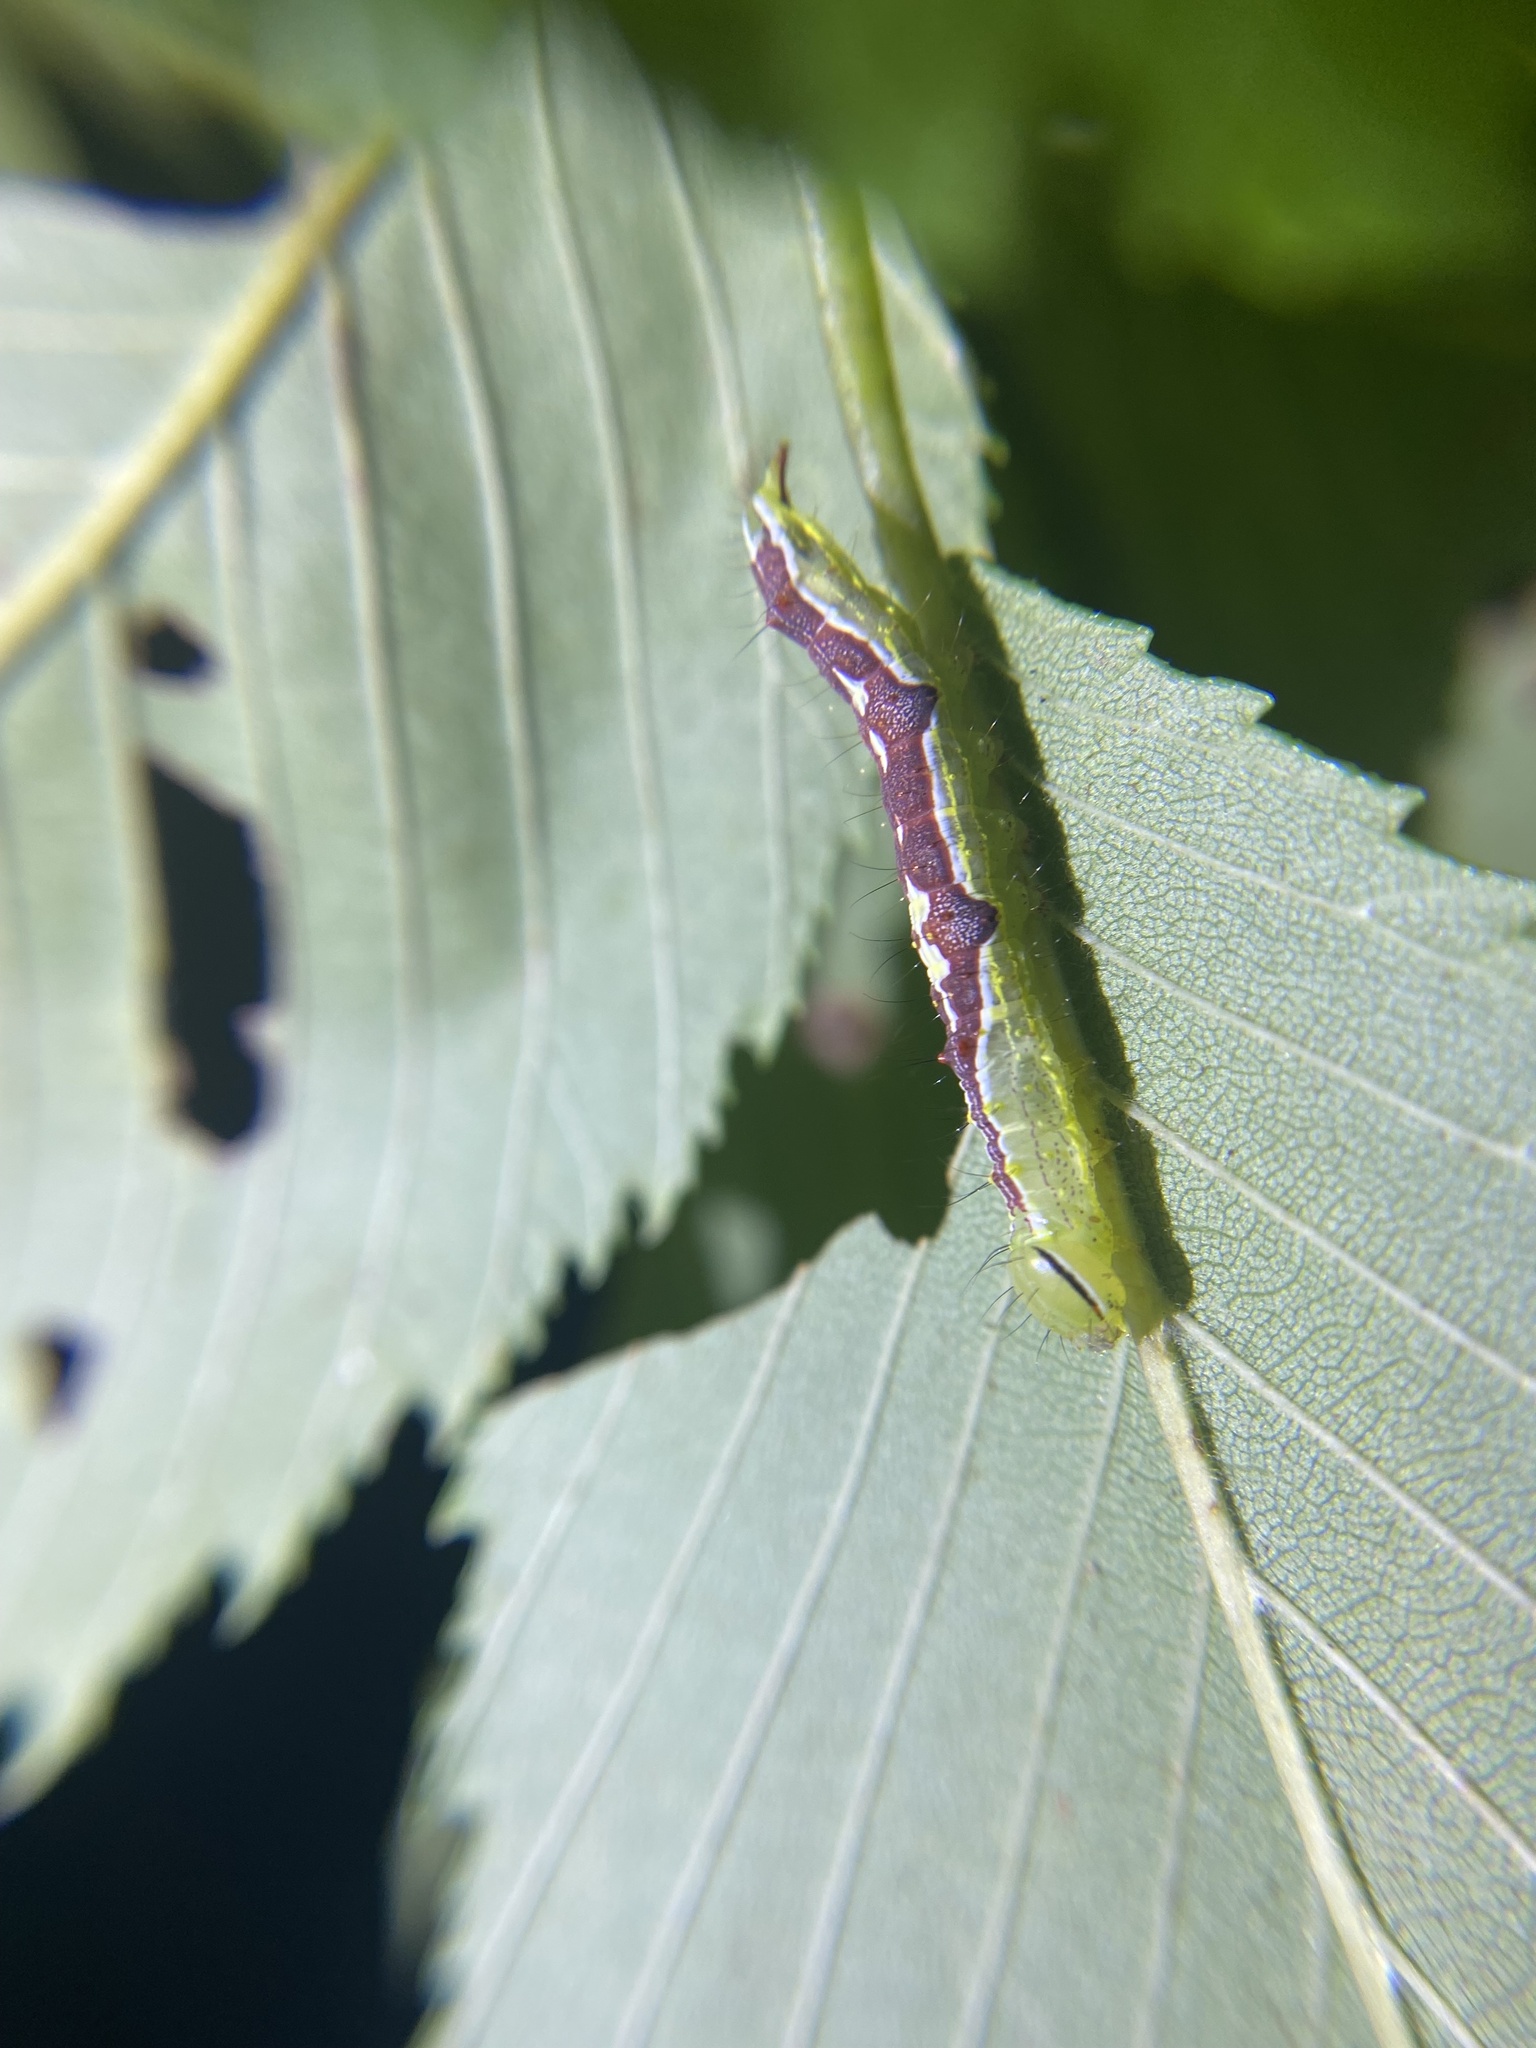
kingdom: Animalia
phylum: Arthropoda
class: Insecta
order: Lepidoptera
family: Notodontidae
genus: Lochmaeus
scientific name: Lochmaeus bilineata
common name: Double-lined prominent
